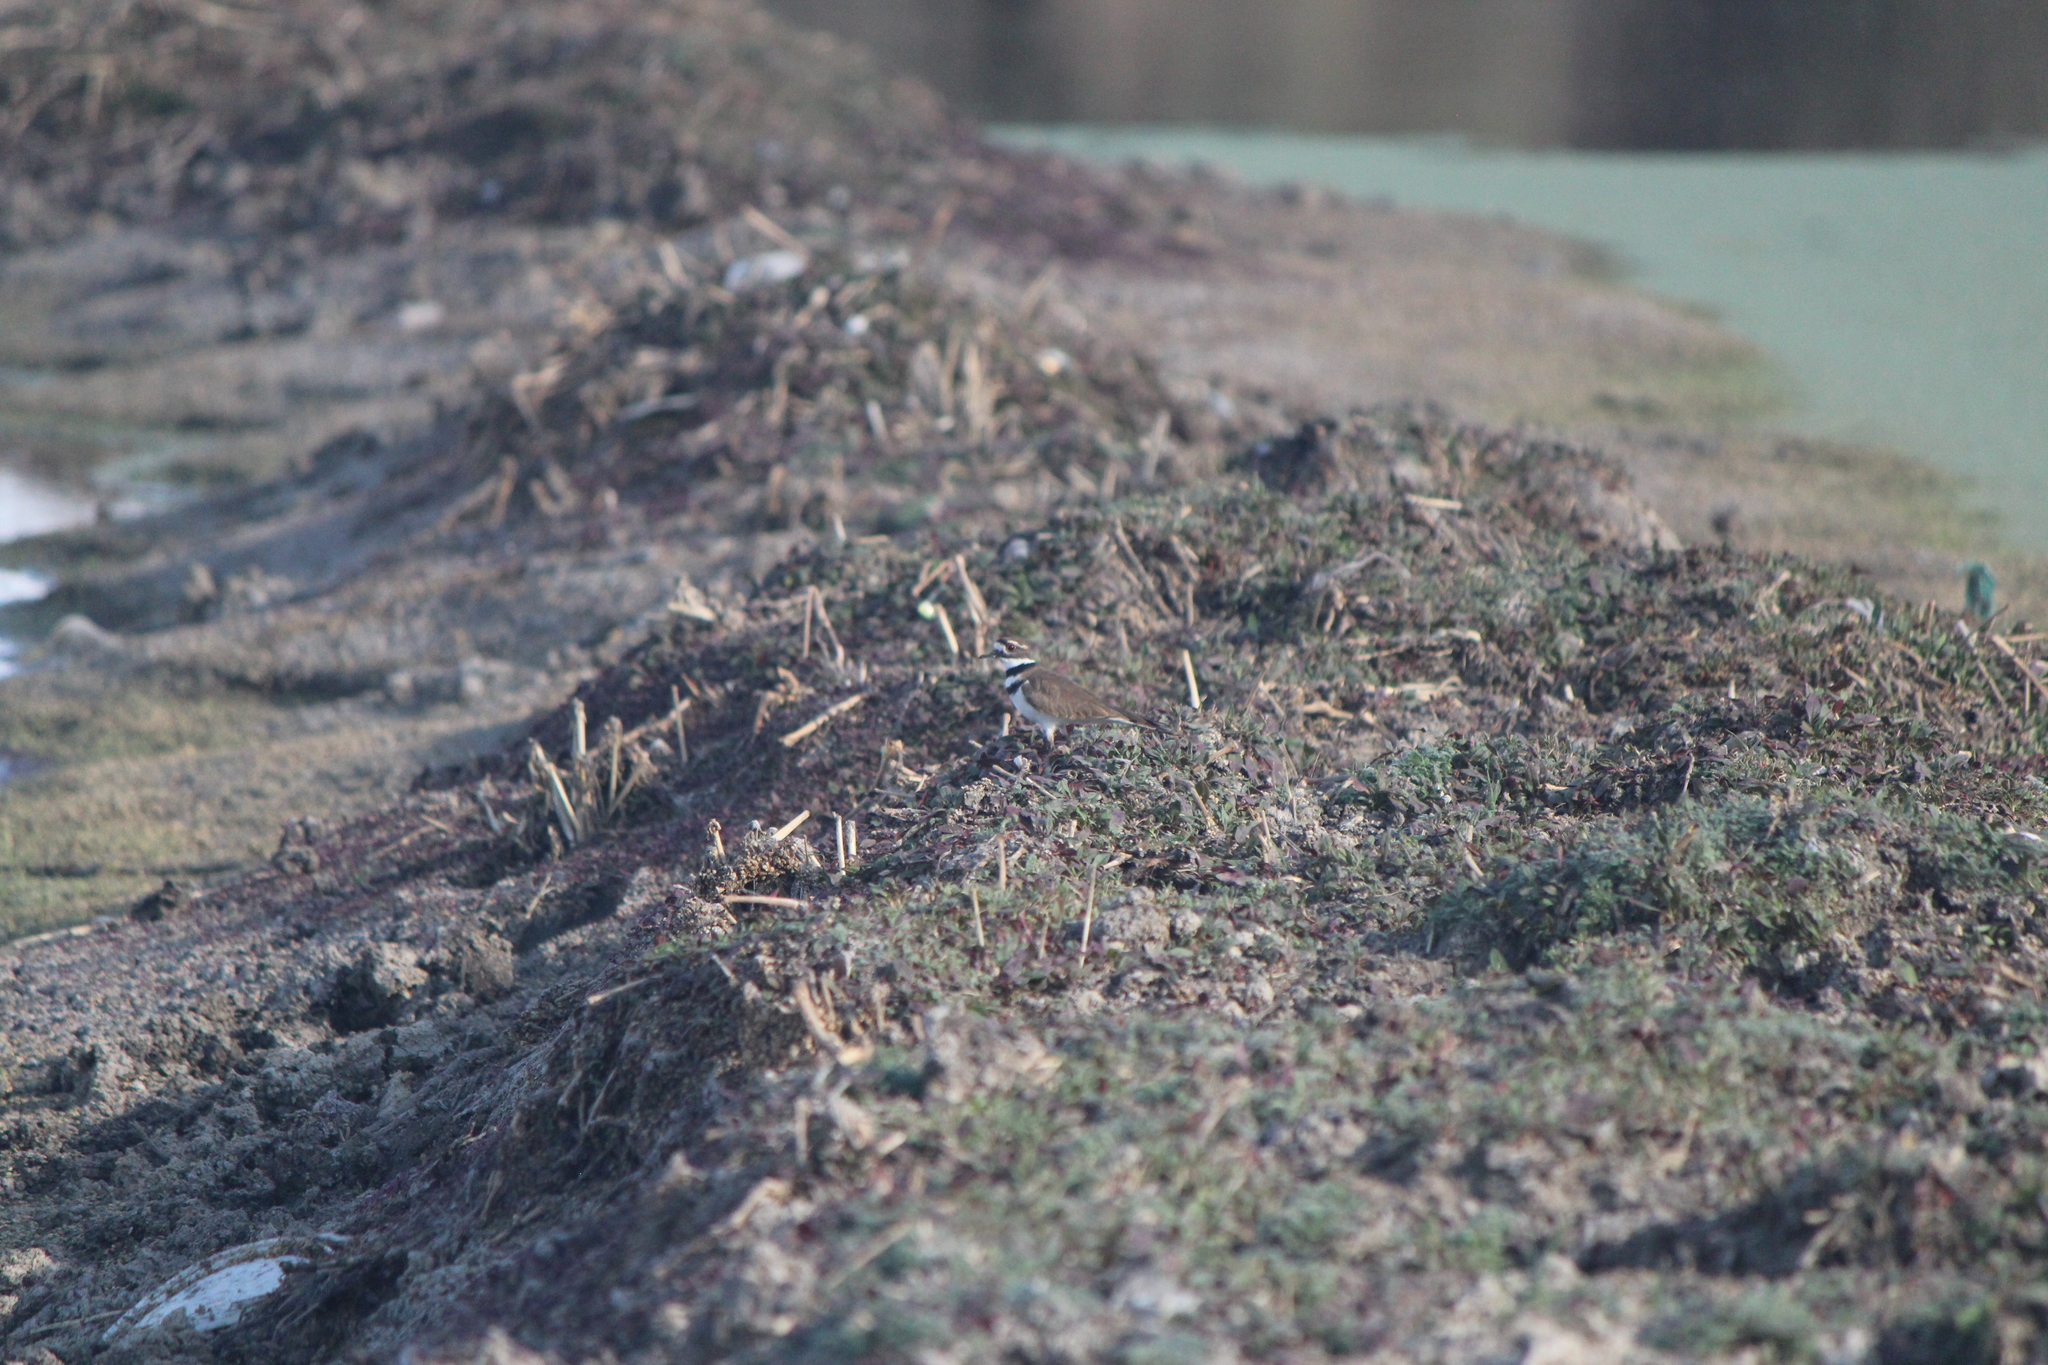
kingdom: Animalia
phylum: Chordata
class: Aves
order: Charadriiformes
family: Charadriidae
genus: Charadrius
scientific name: Charadrius vociferus
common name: Killdeer
